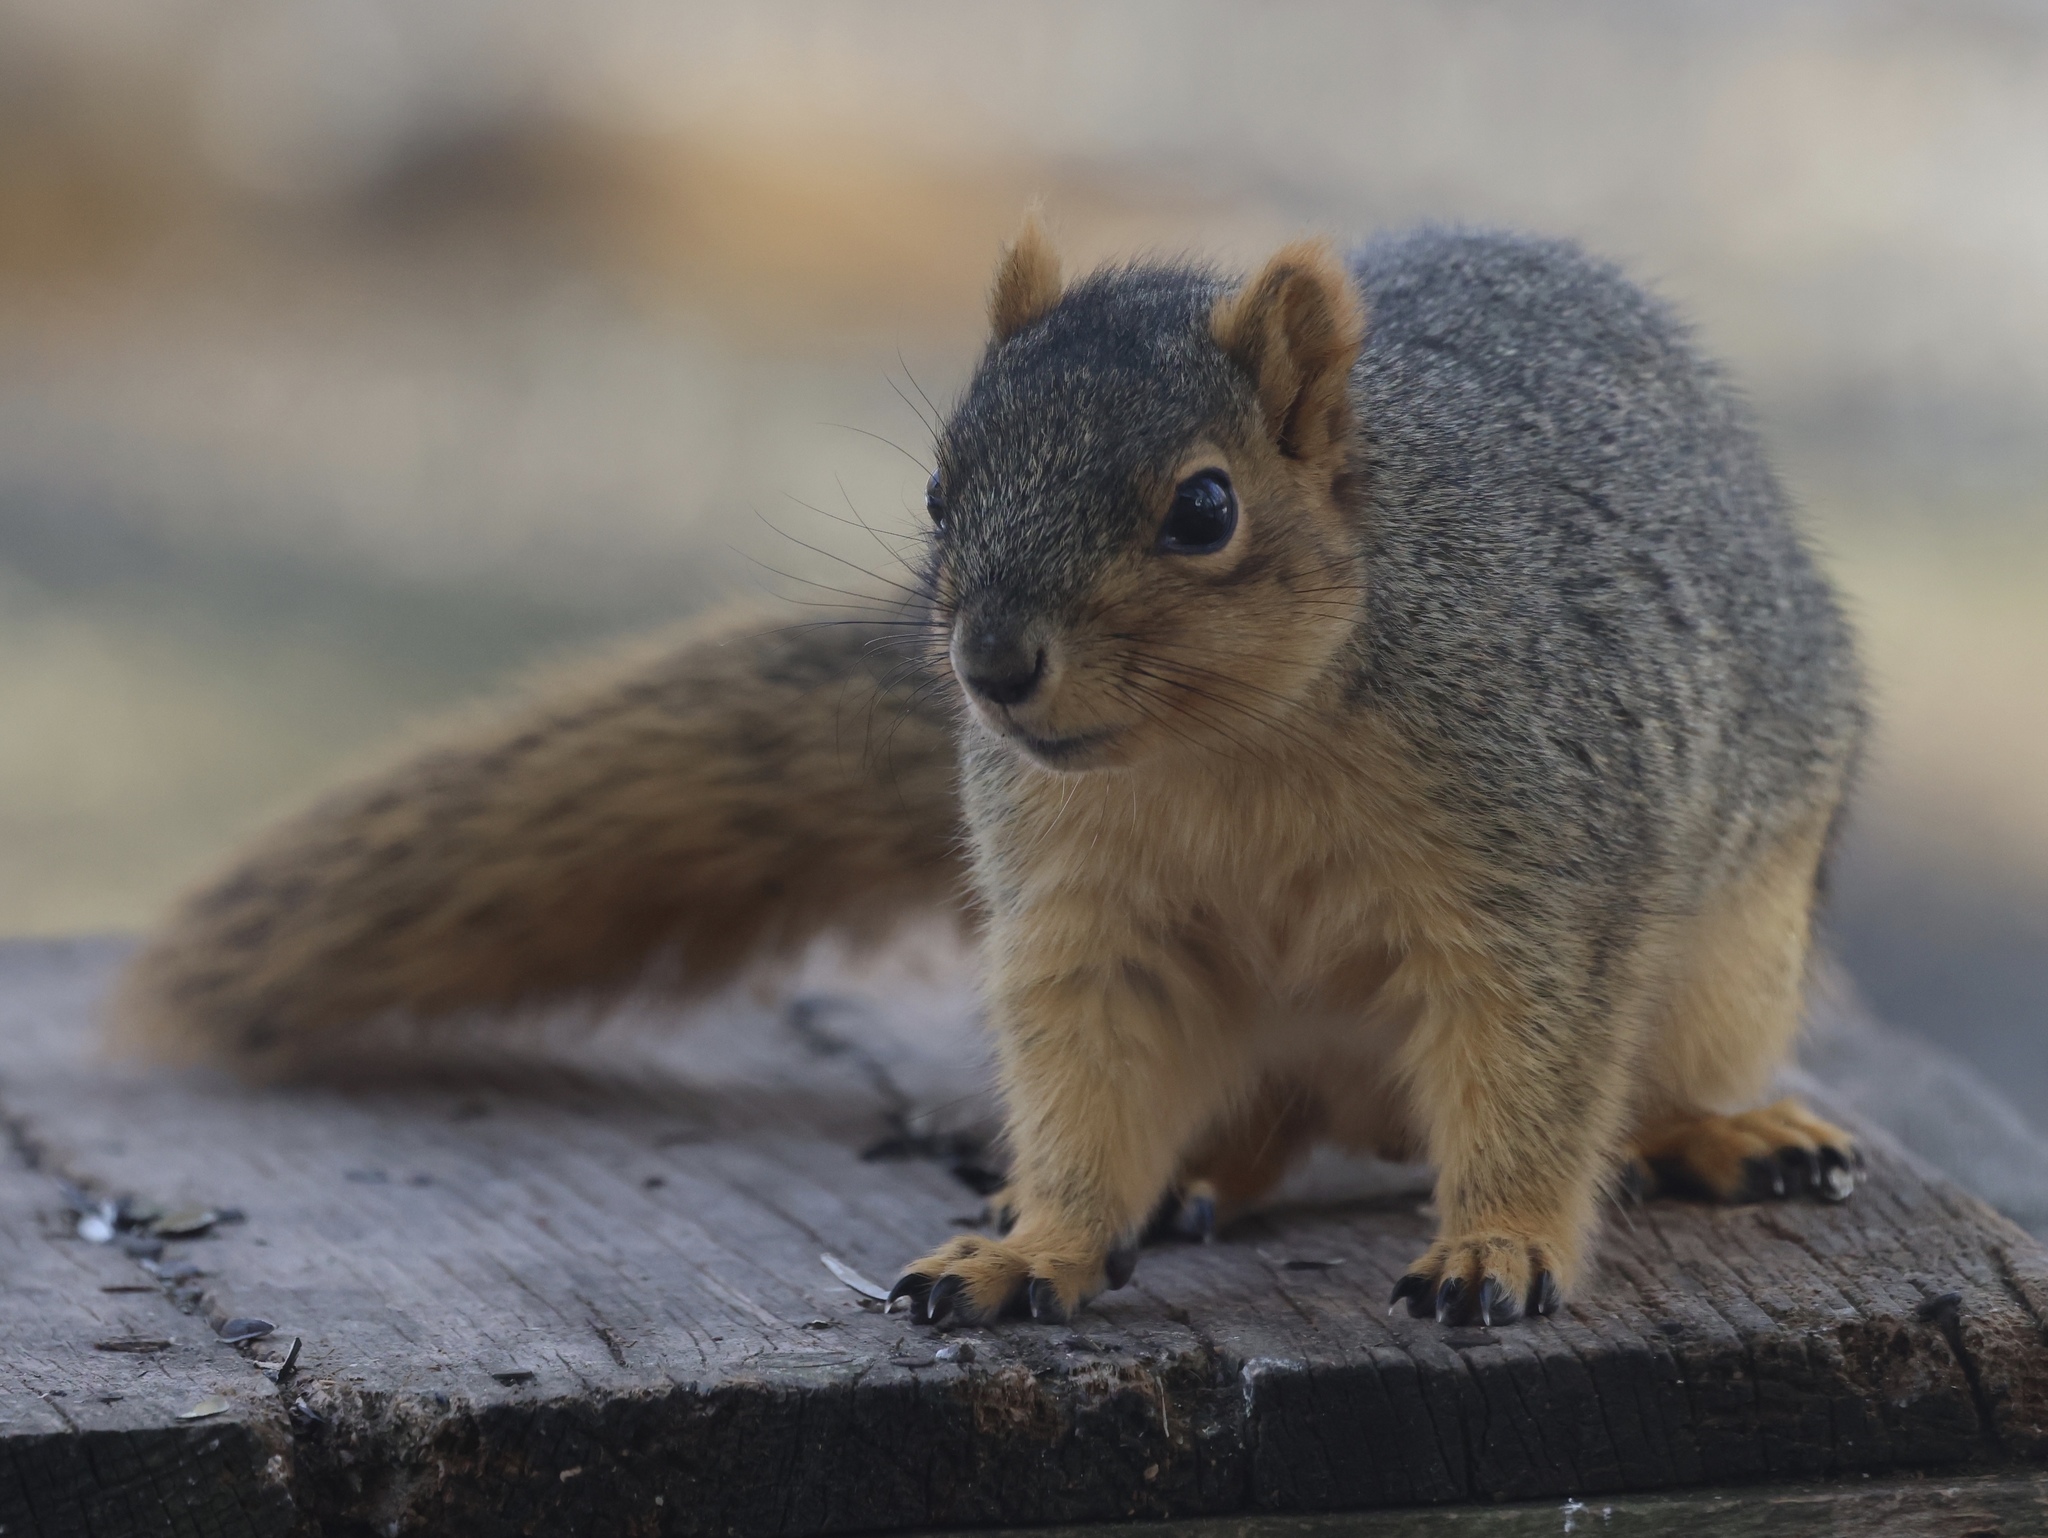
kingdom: Animalia
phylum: Chordata
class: Mammalia
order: Rodentia
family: Sciuridae
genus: Sciurus
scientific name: Sciurus niger
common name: Fox squirrel
